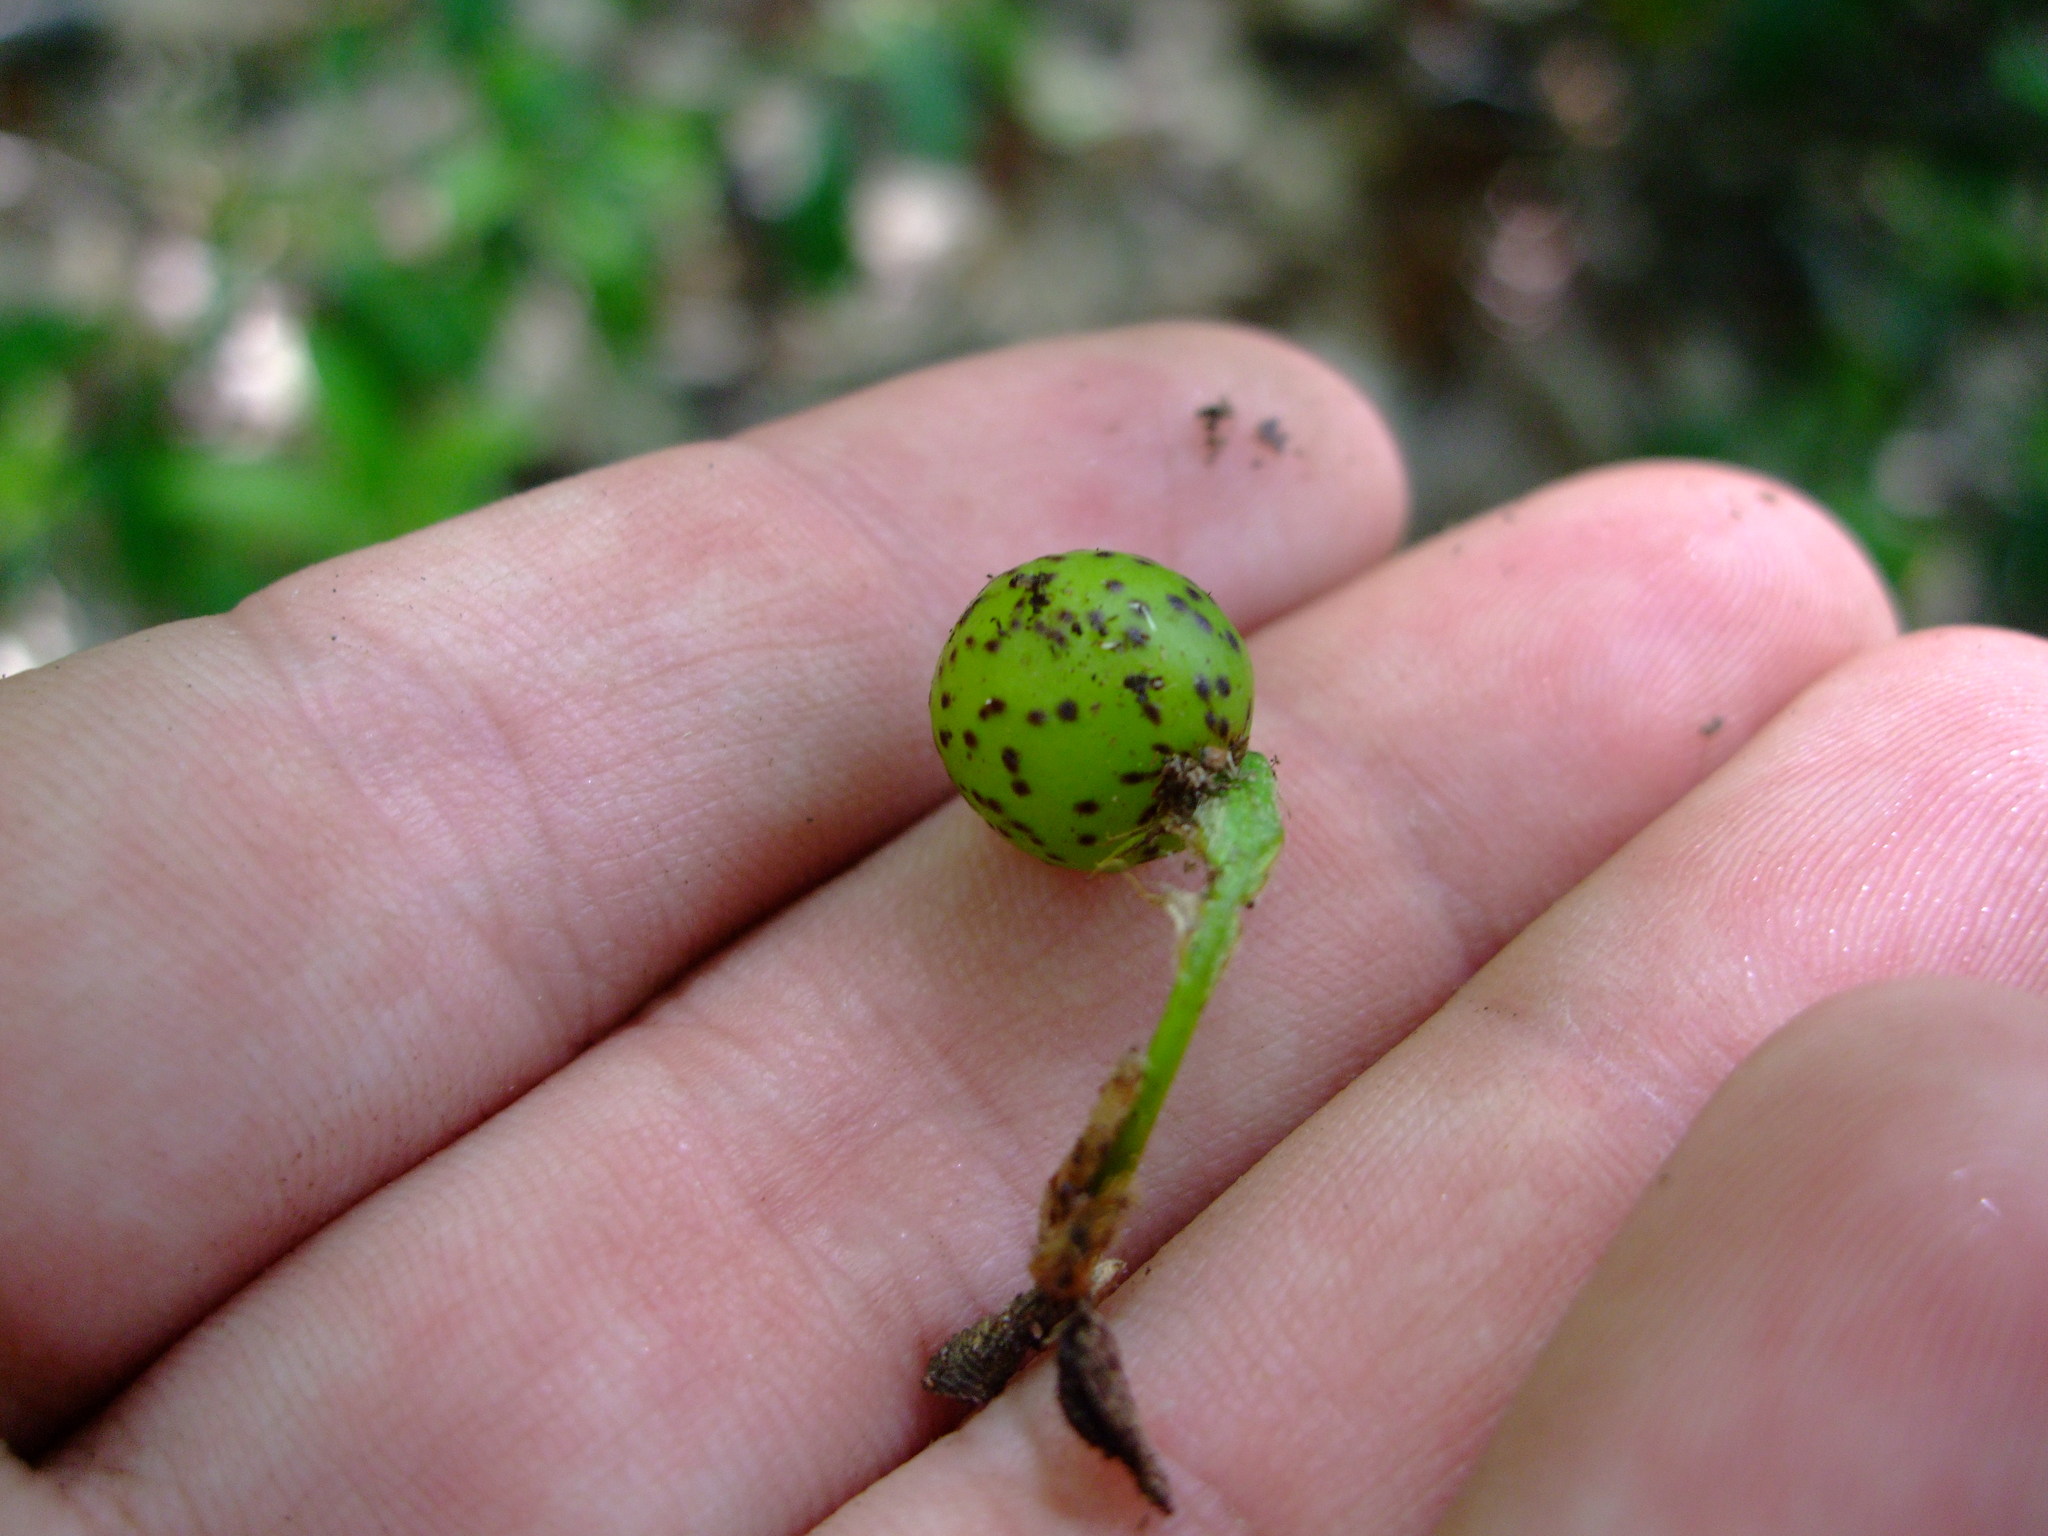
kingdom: Animalia
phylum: Arthropoda
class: Insecta
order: Hymenoptera
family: Cynipidae
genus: Amphibolips
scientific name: Amphibolips
